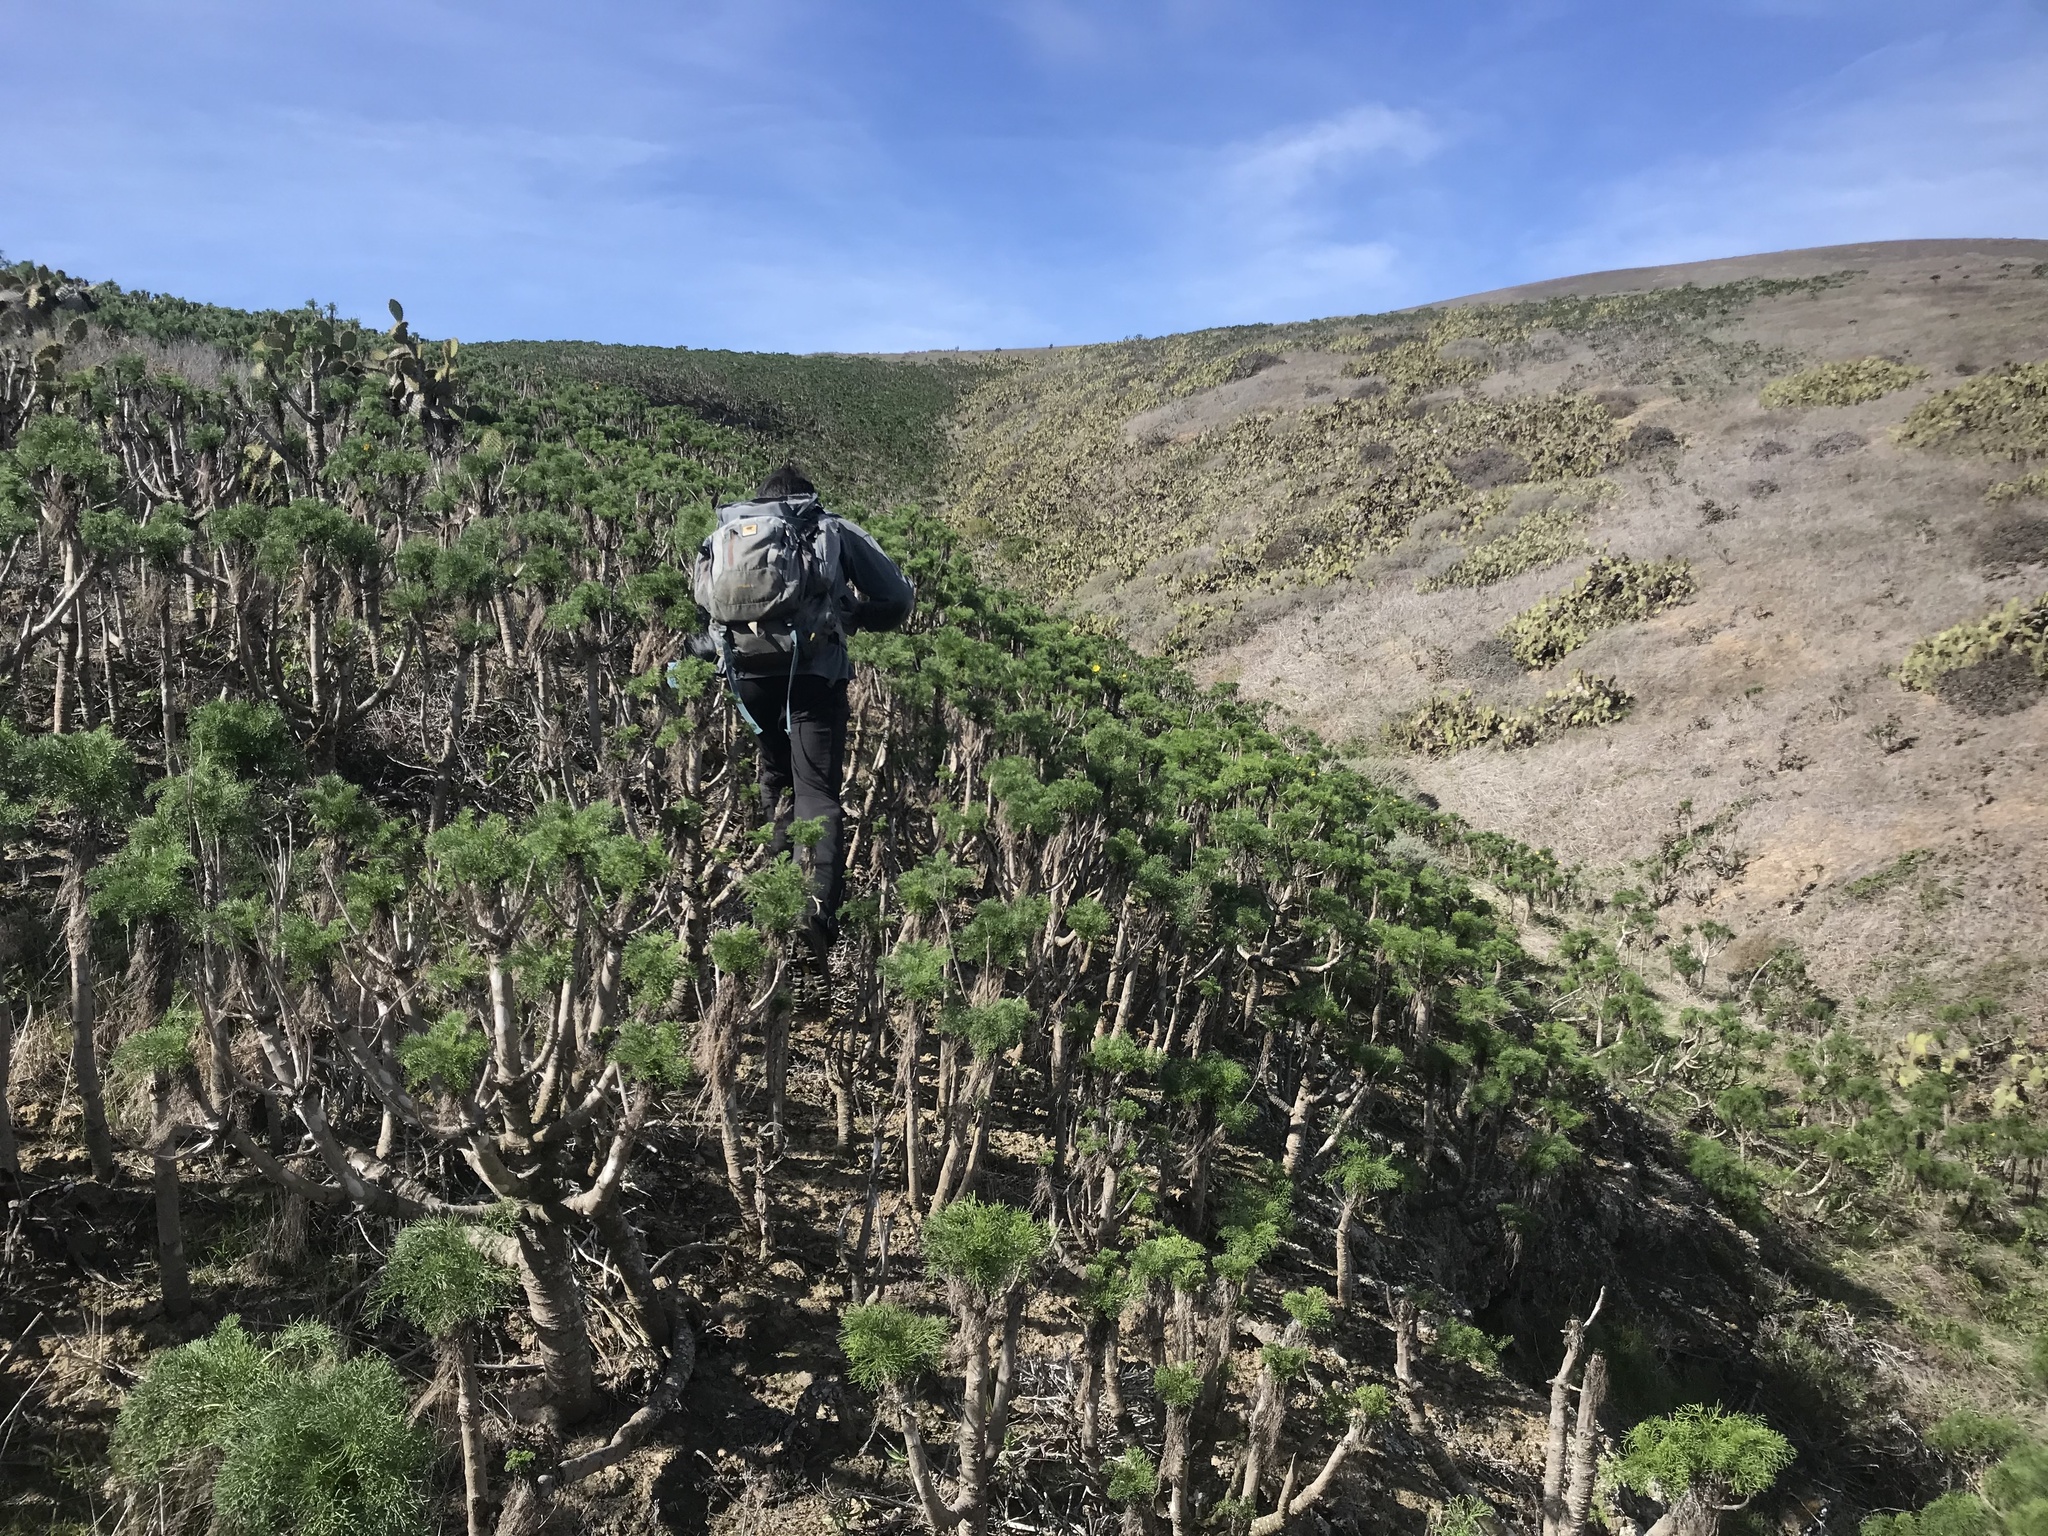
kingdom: Plantae
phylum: Tracheophyta
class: Magnoliopsida
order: Asterales
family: Asteraceae
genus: Coreopsis
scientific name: Coreopsis gigantea
